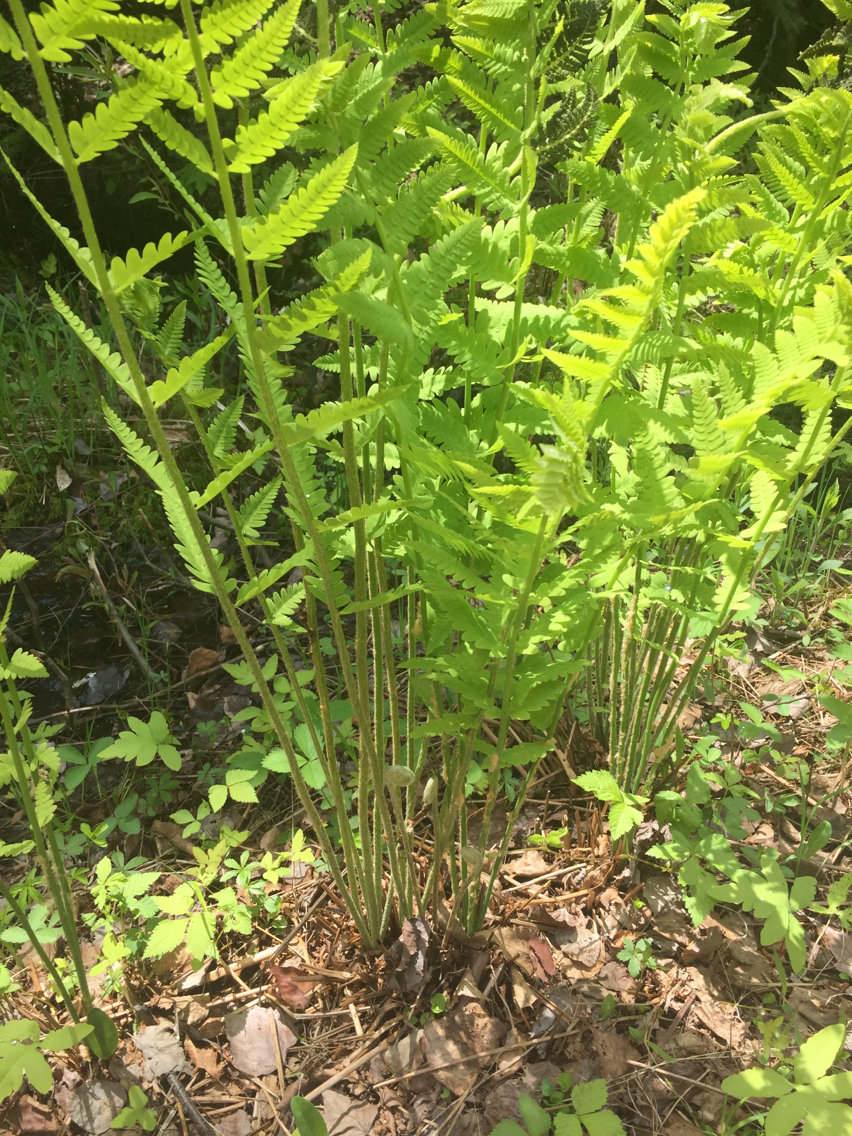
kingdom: Plantae
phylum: Tracheophyta
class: Polypodiopsida
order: Osmundales
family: Osmundaceae
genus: Osmundastrum
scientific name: Osmundastrum cinnamomeum
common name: Cinnamon fern
